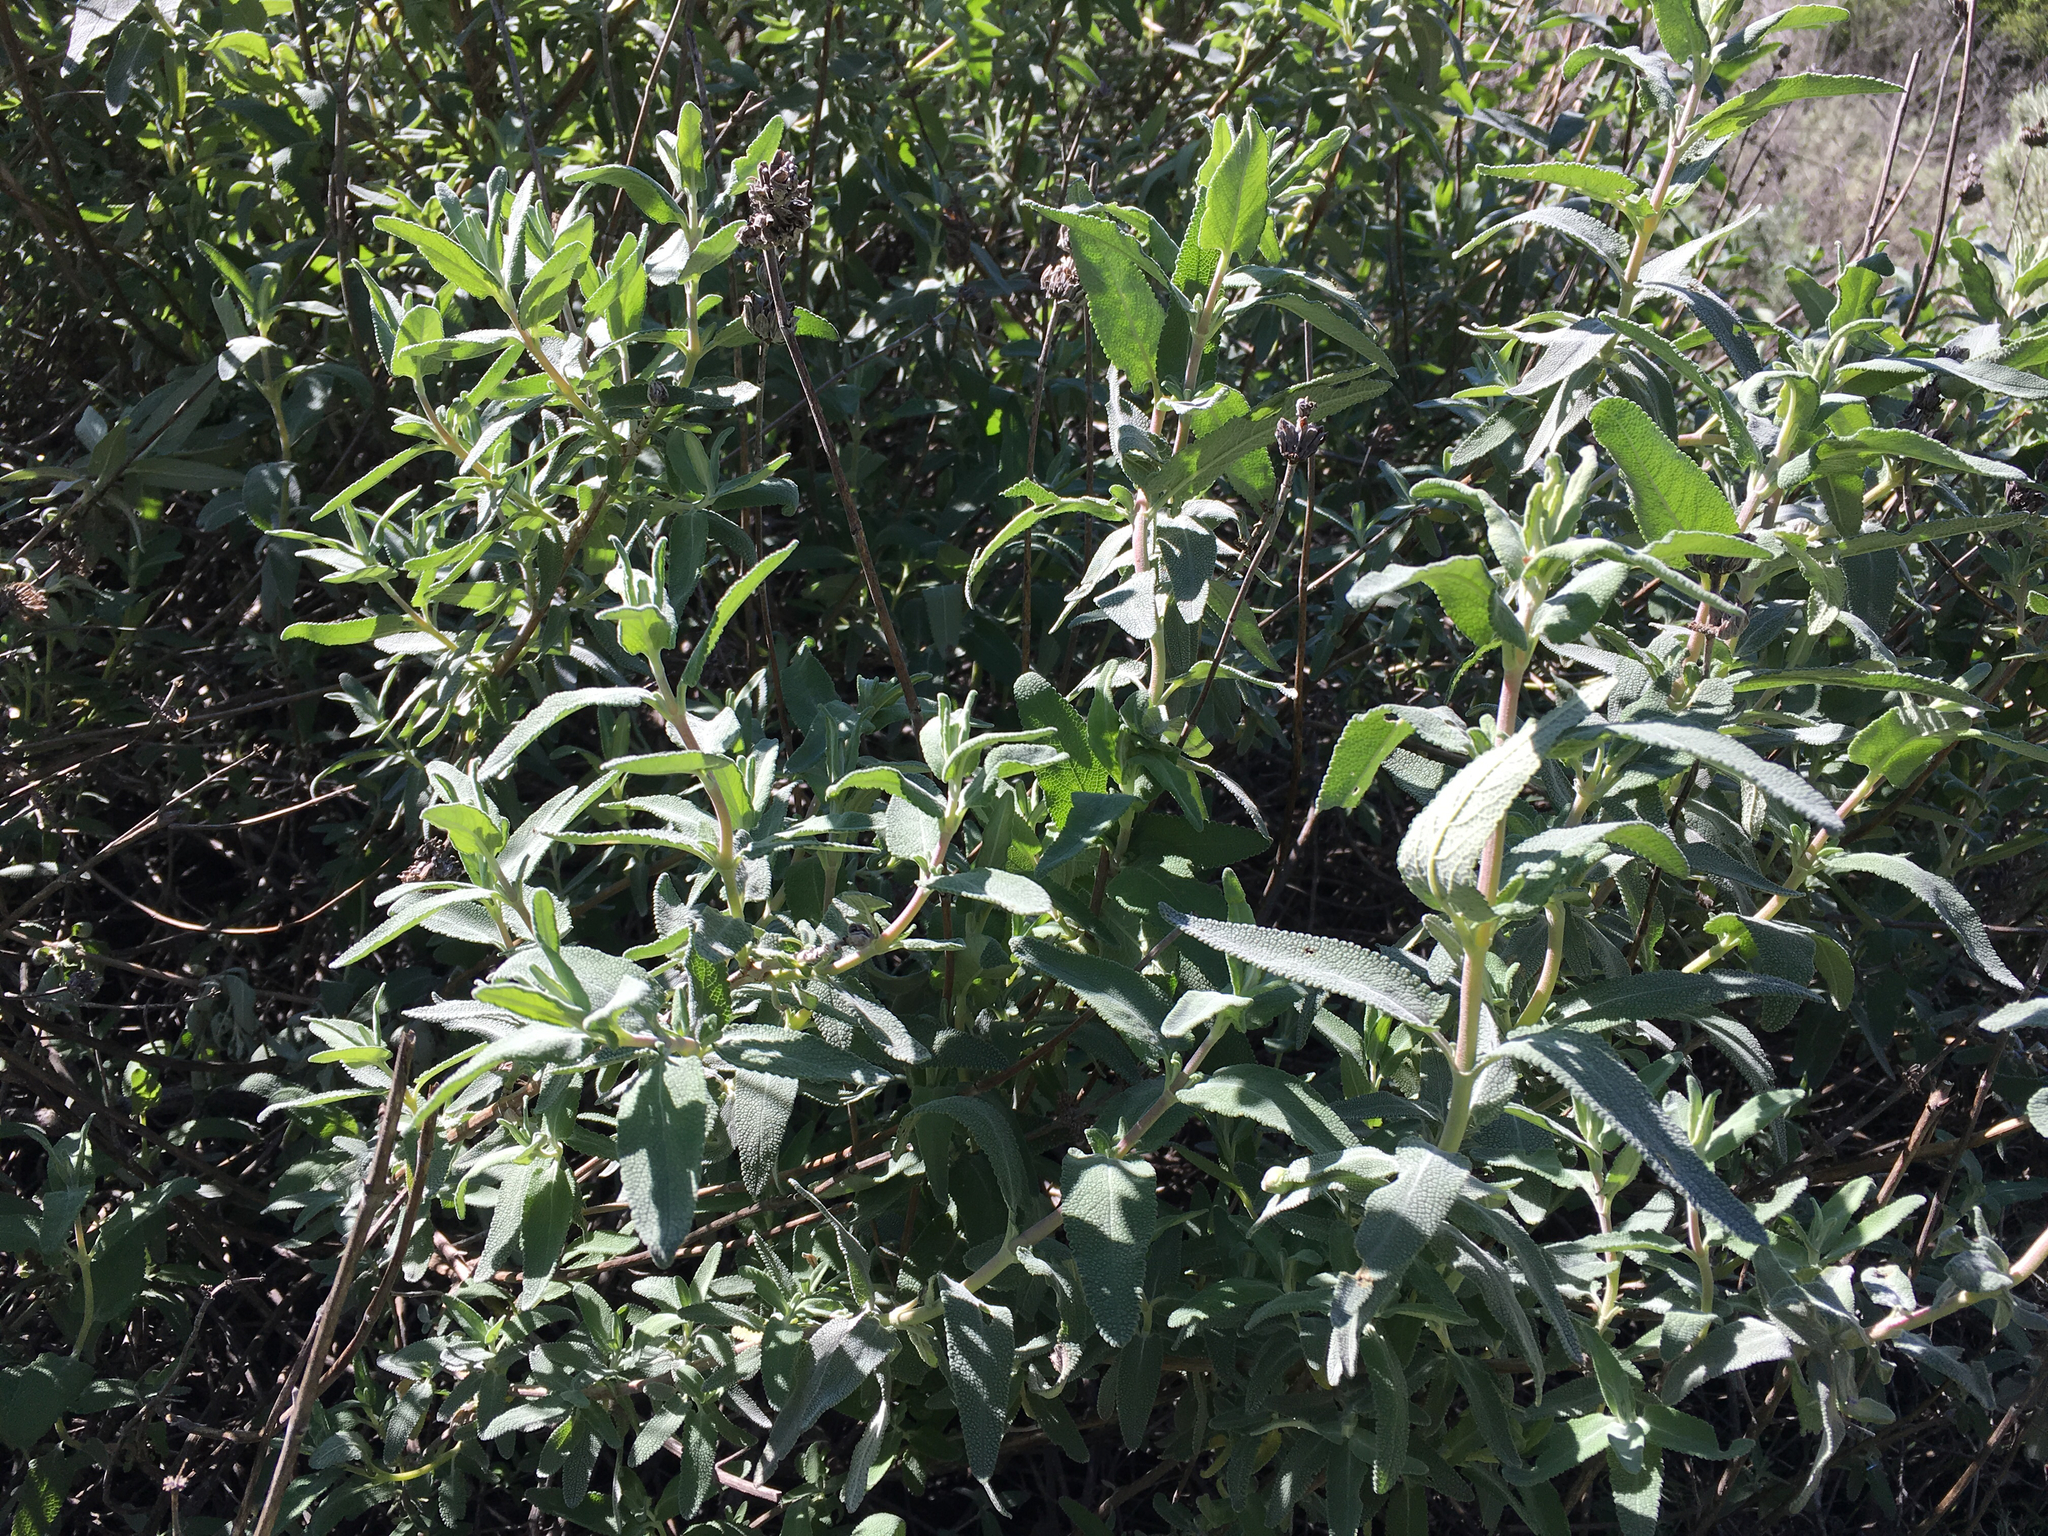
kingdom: Plantae
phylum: Tracheophyta
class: Magnoliopsida
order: Lamiales
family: Lamiaceae
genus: Salvia
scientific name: Salvia leucophylla
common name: Purple sage
